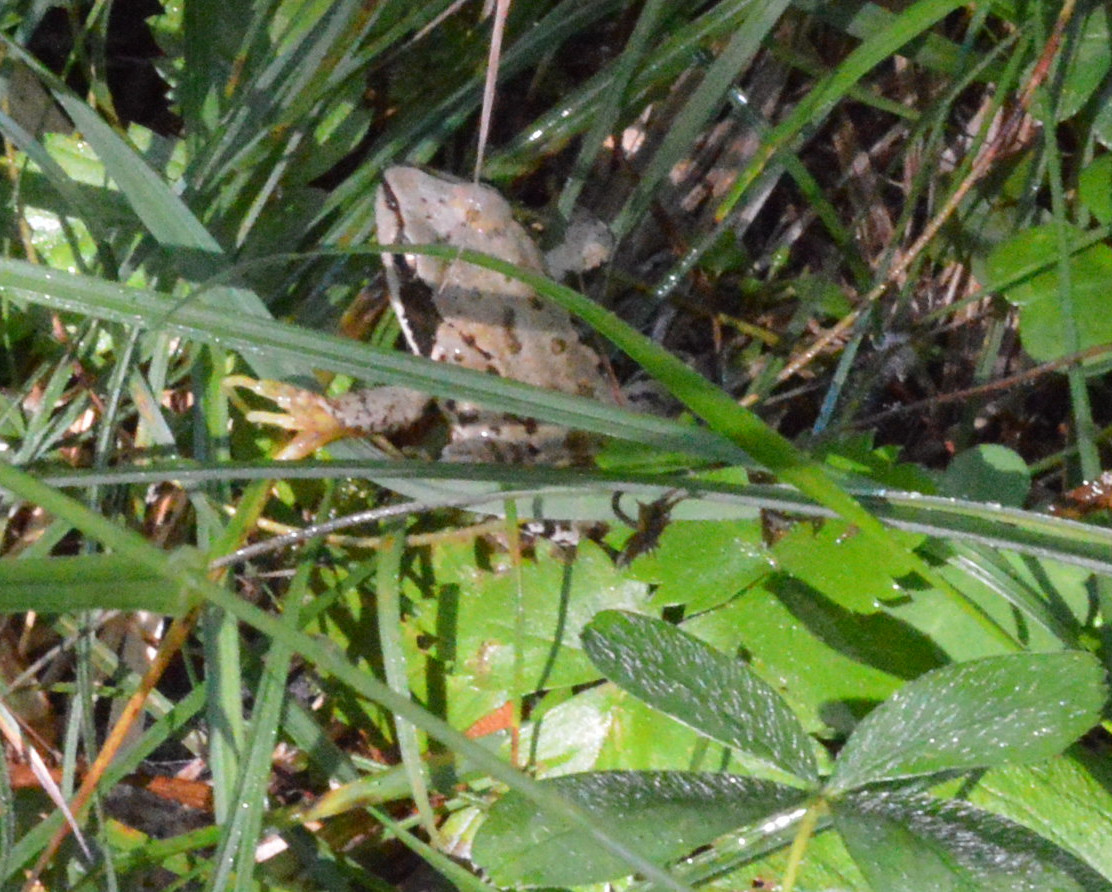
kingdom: Animalia
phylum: Chordata
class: Amphibia
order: Anura
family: Ranidae
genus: Rana
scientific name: Rana temporaria
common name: Common frog
